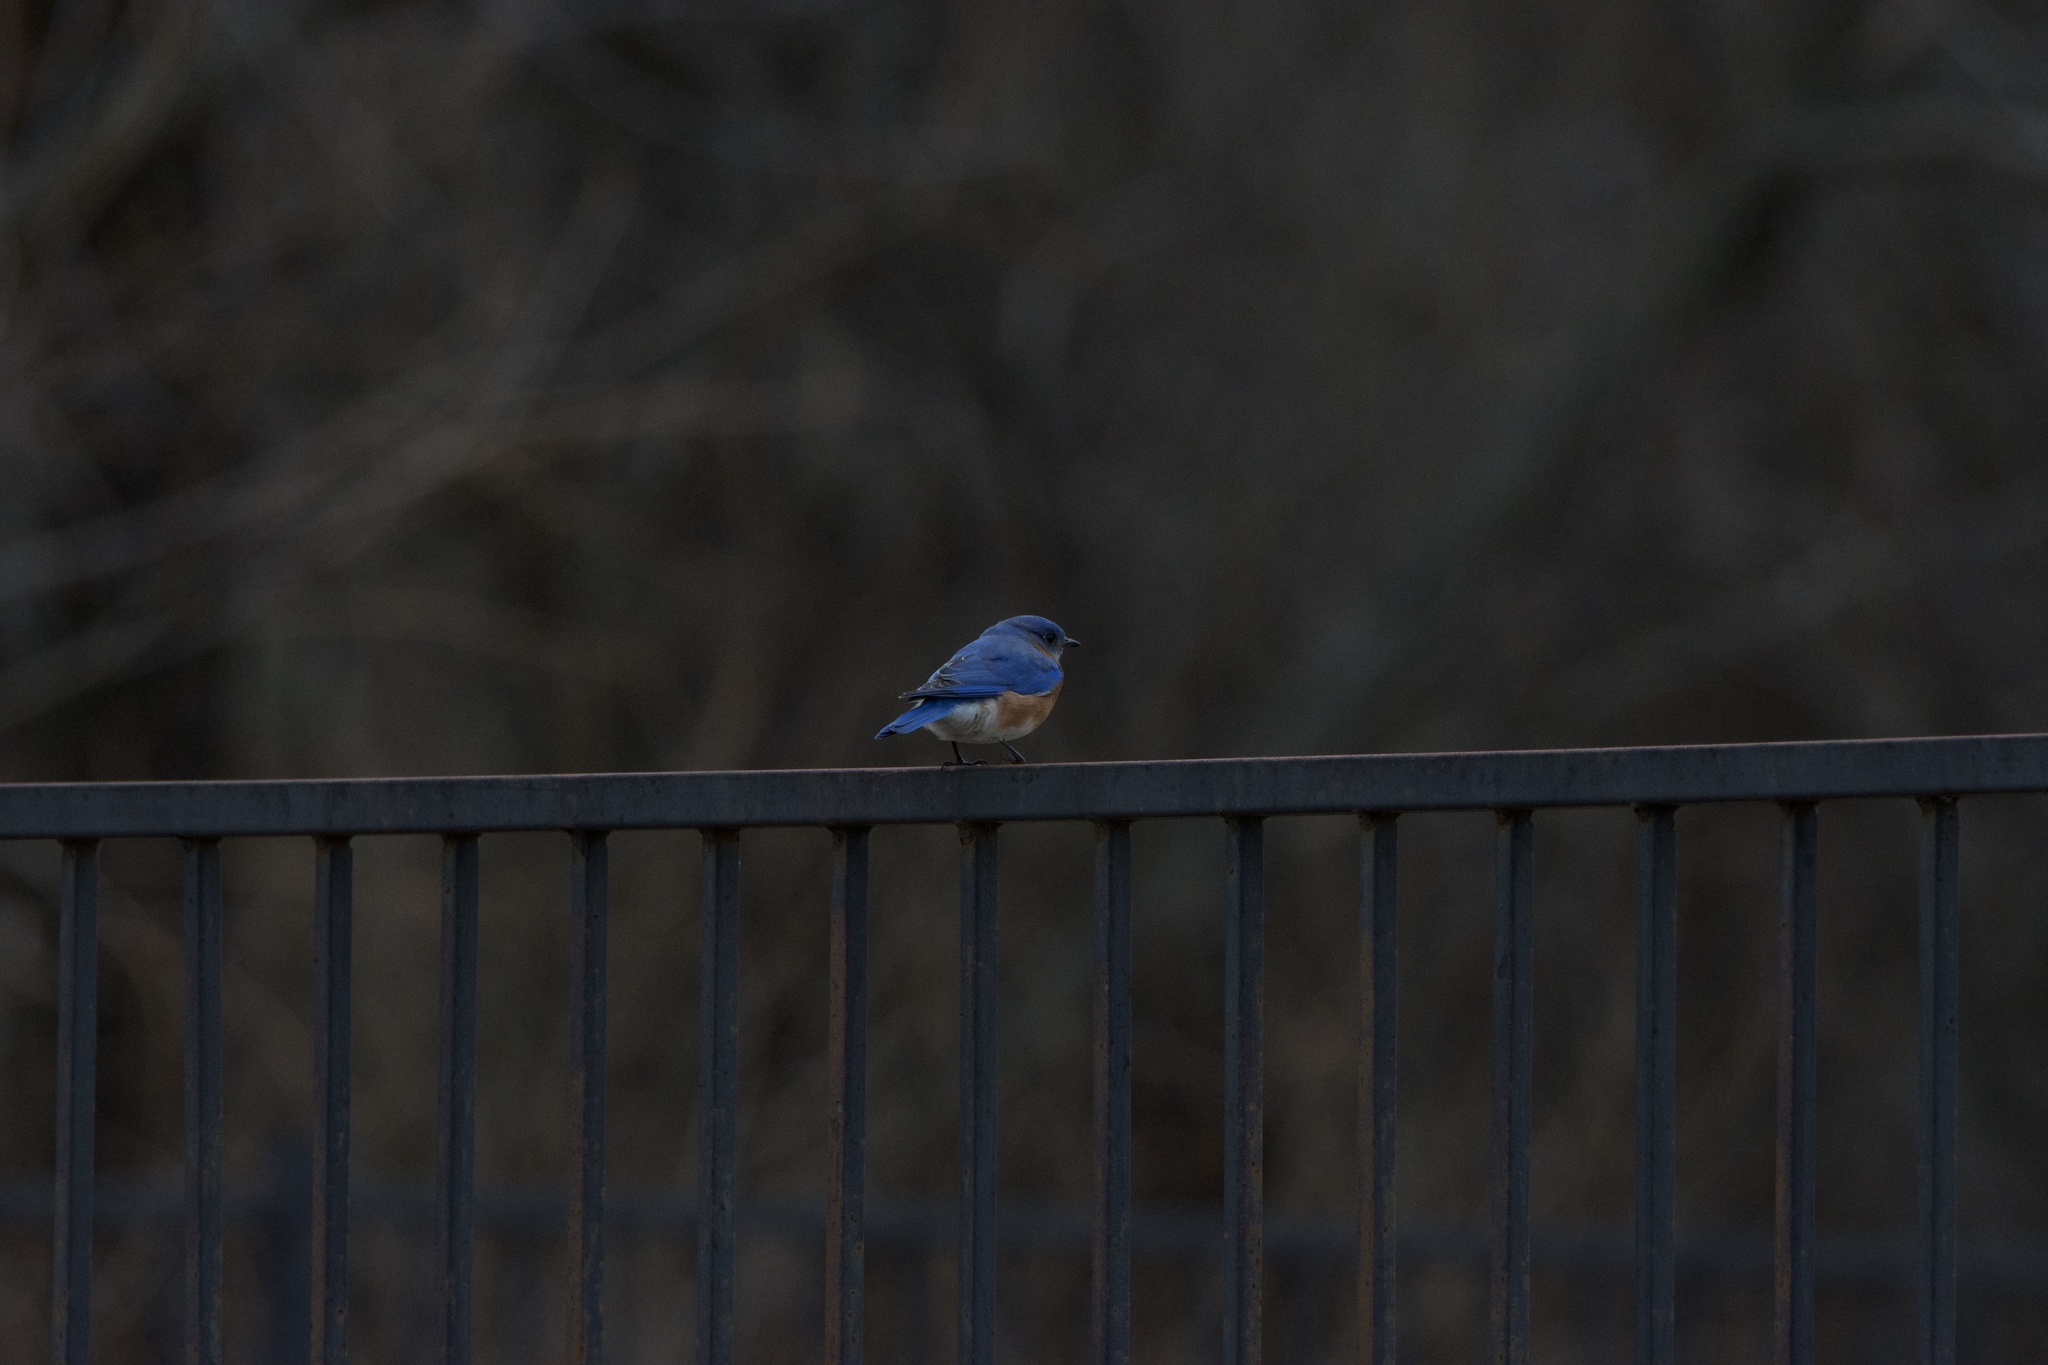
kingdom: Animalia
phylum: Chordata
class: Aves
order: Passeriformes
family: Turdidae
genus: Sialia
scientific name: Sialia sialis
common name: Eastern bluebird
